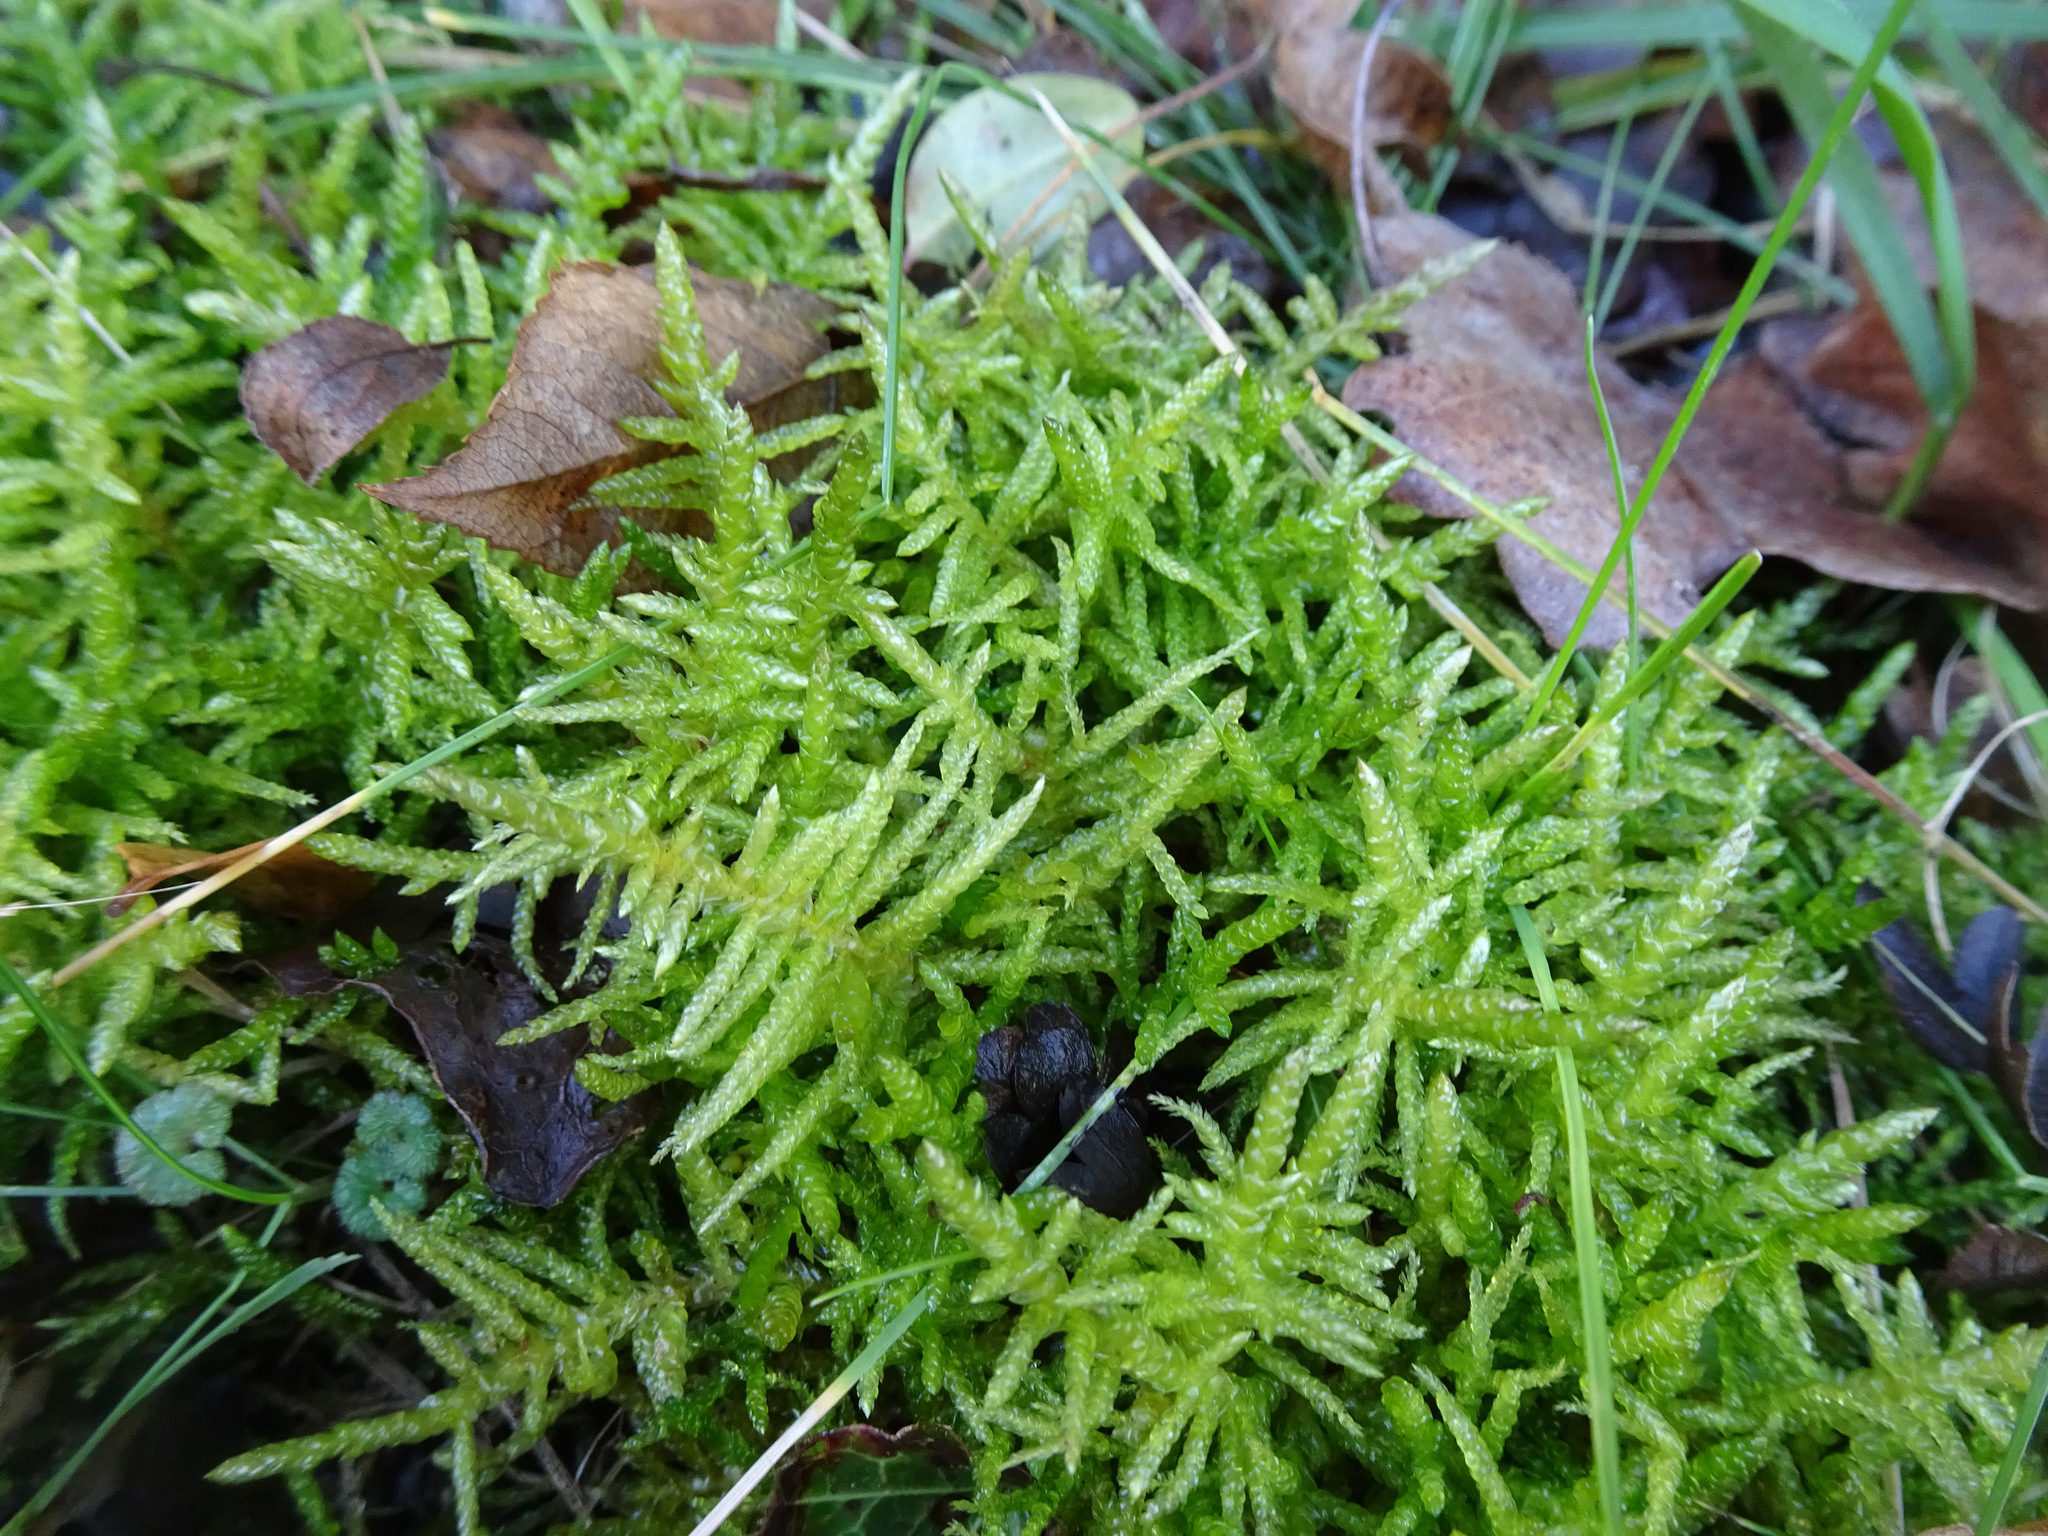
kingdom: Plantae
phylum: Bryophyta
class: Bryopsida
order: Hypnales
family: Brachytheciaceae
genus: Pseudoscleropodium
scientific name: Pseudoscleropodium purum
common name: Neat feather-moss
